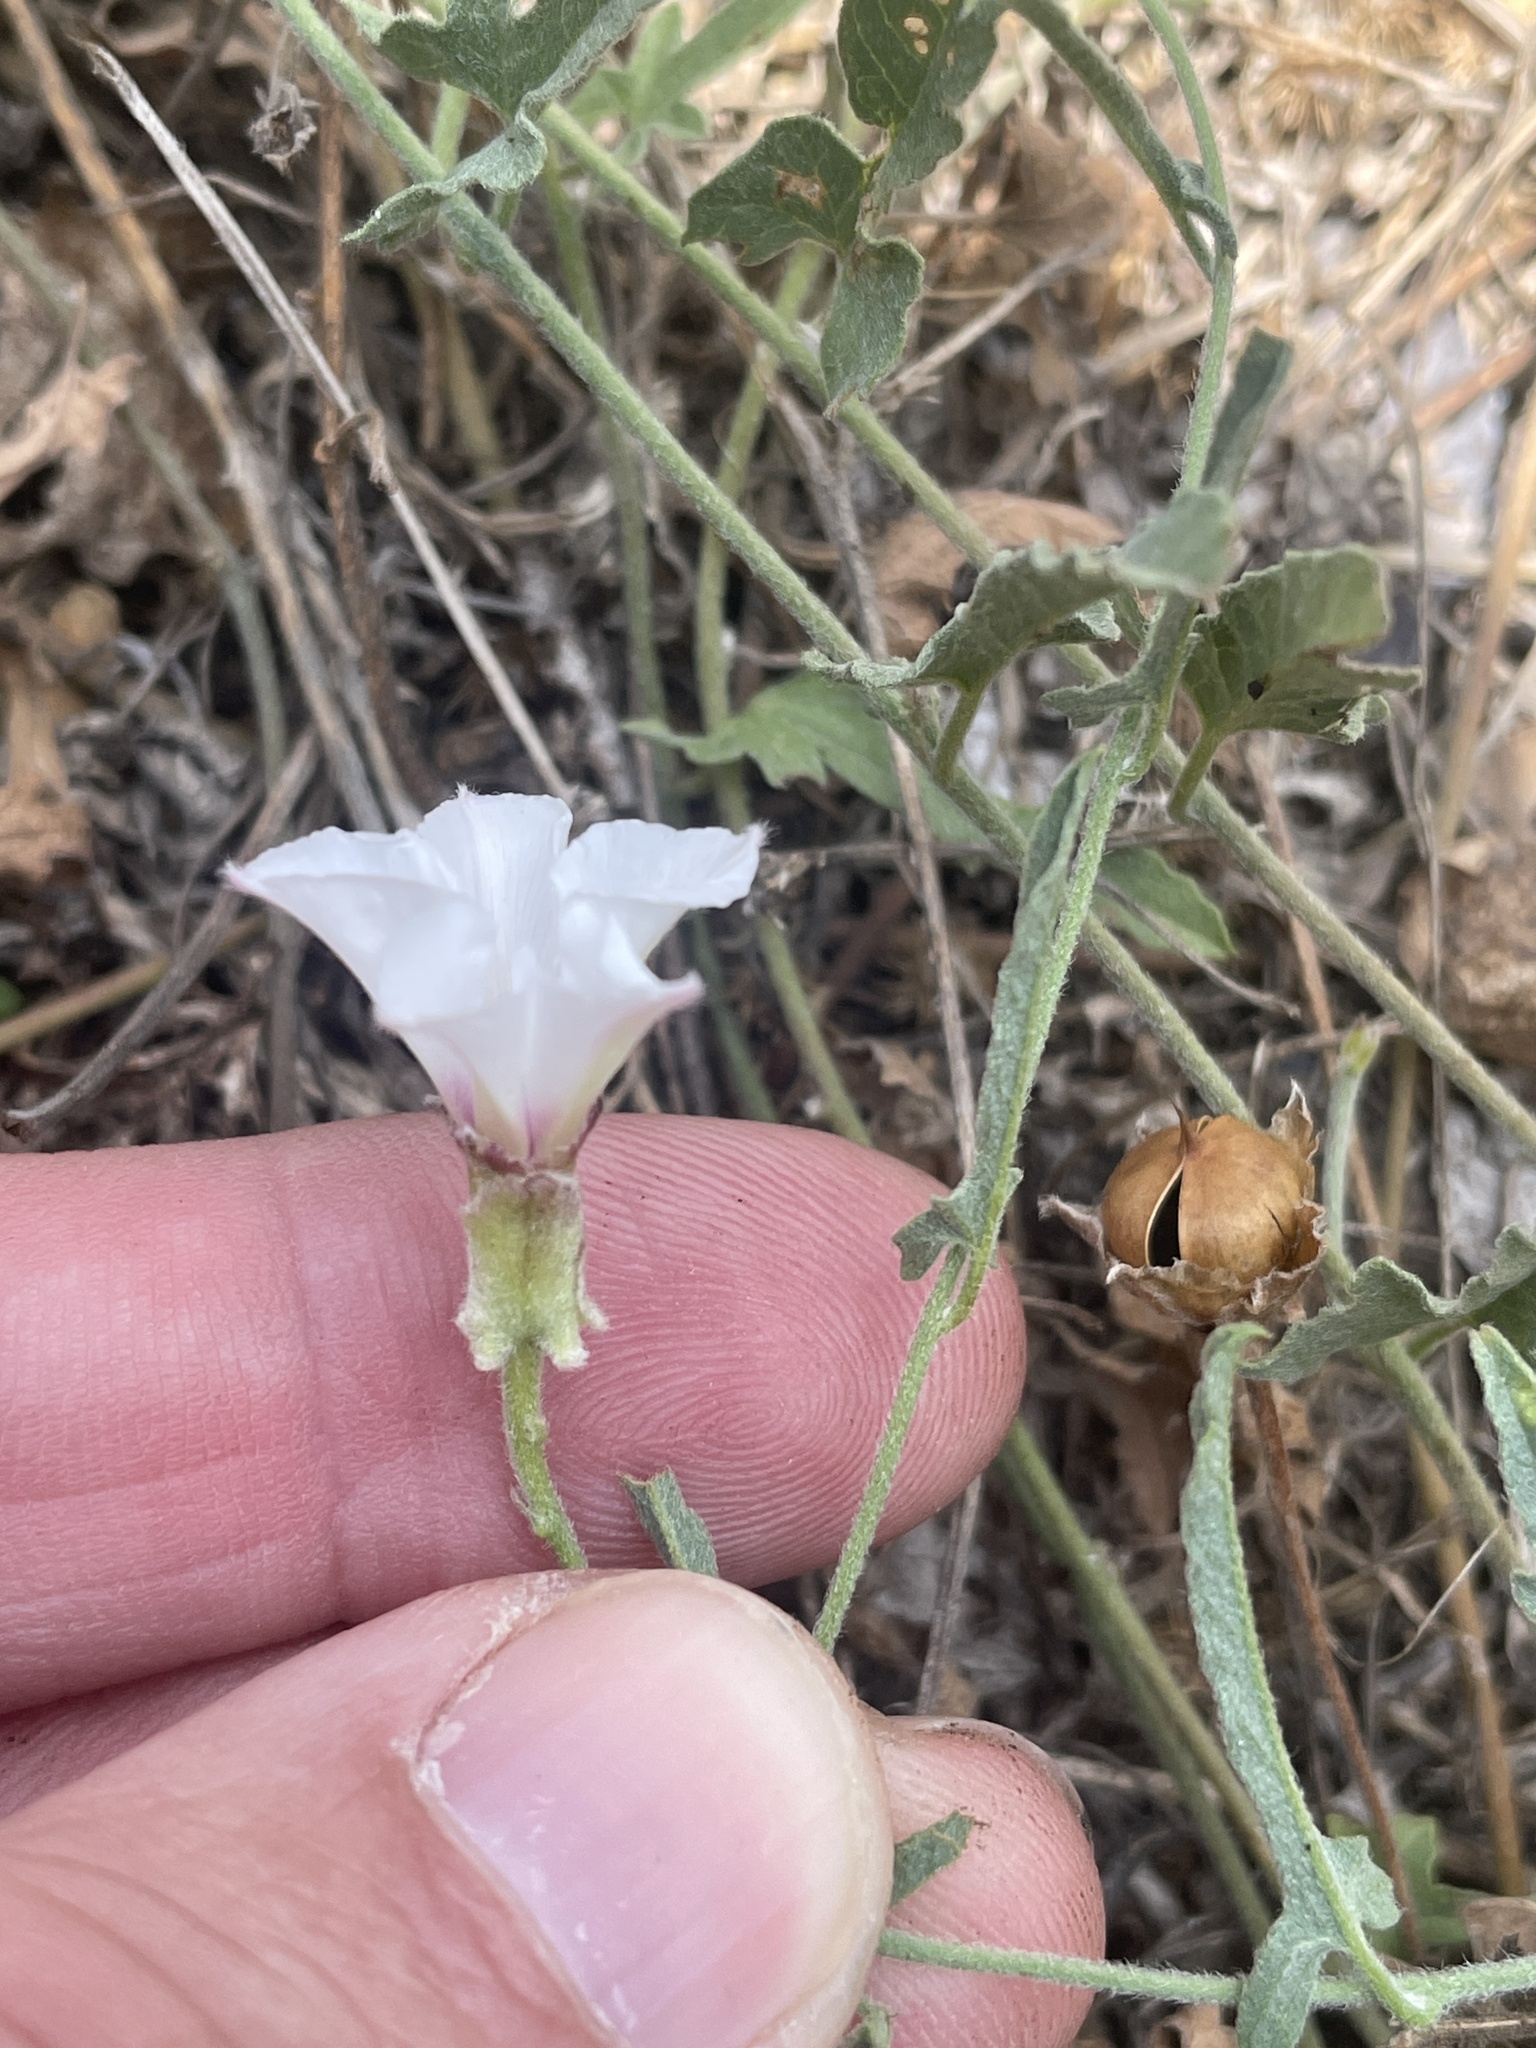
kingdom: Plantae
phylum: Tracheophyta
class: Magnoliopsida
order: Solanales
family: Convolvulaceae
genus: Convolvulus
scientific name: Convolvulus equitans
